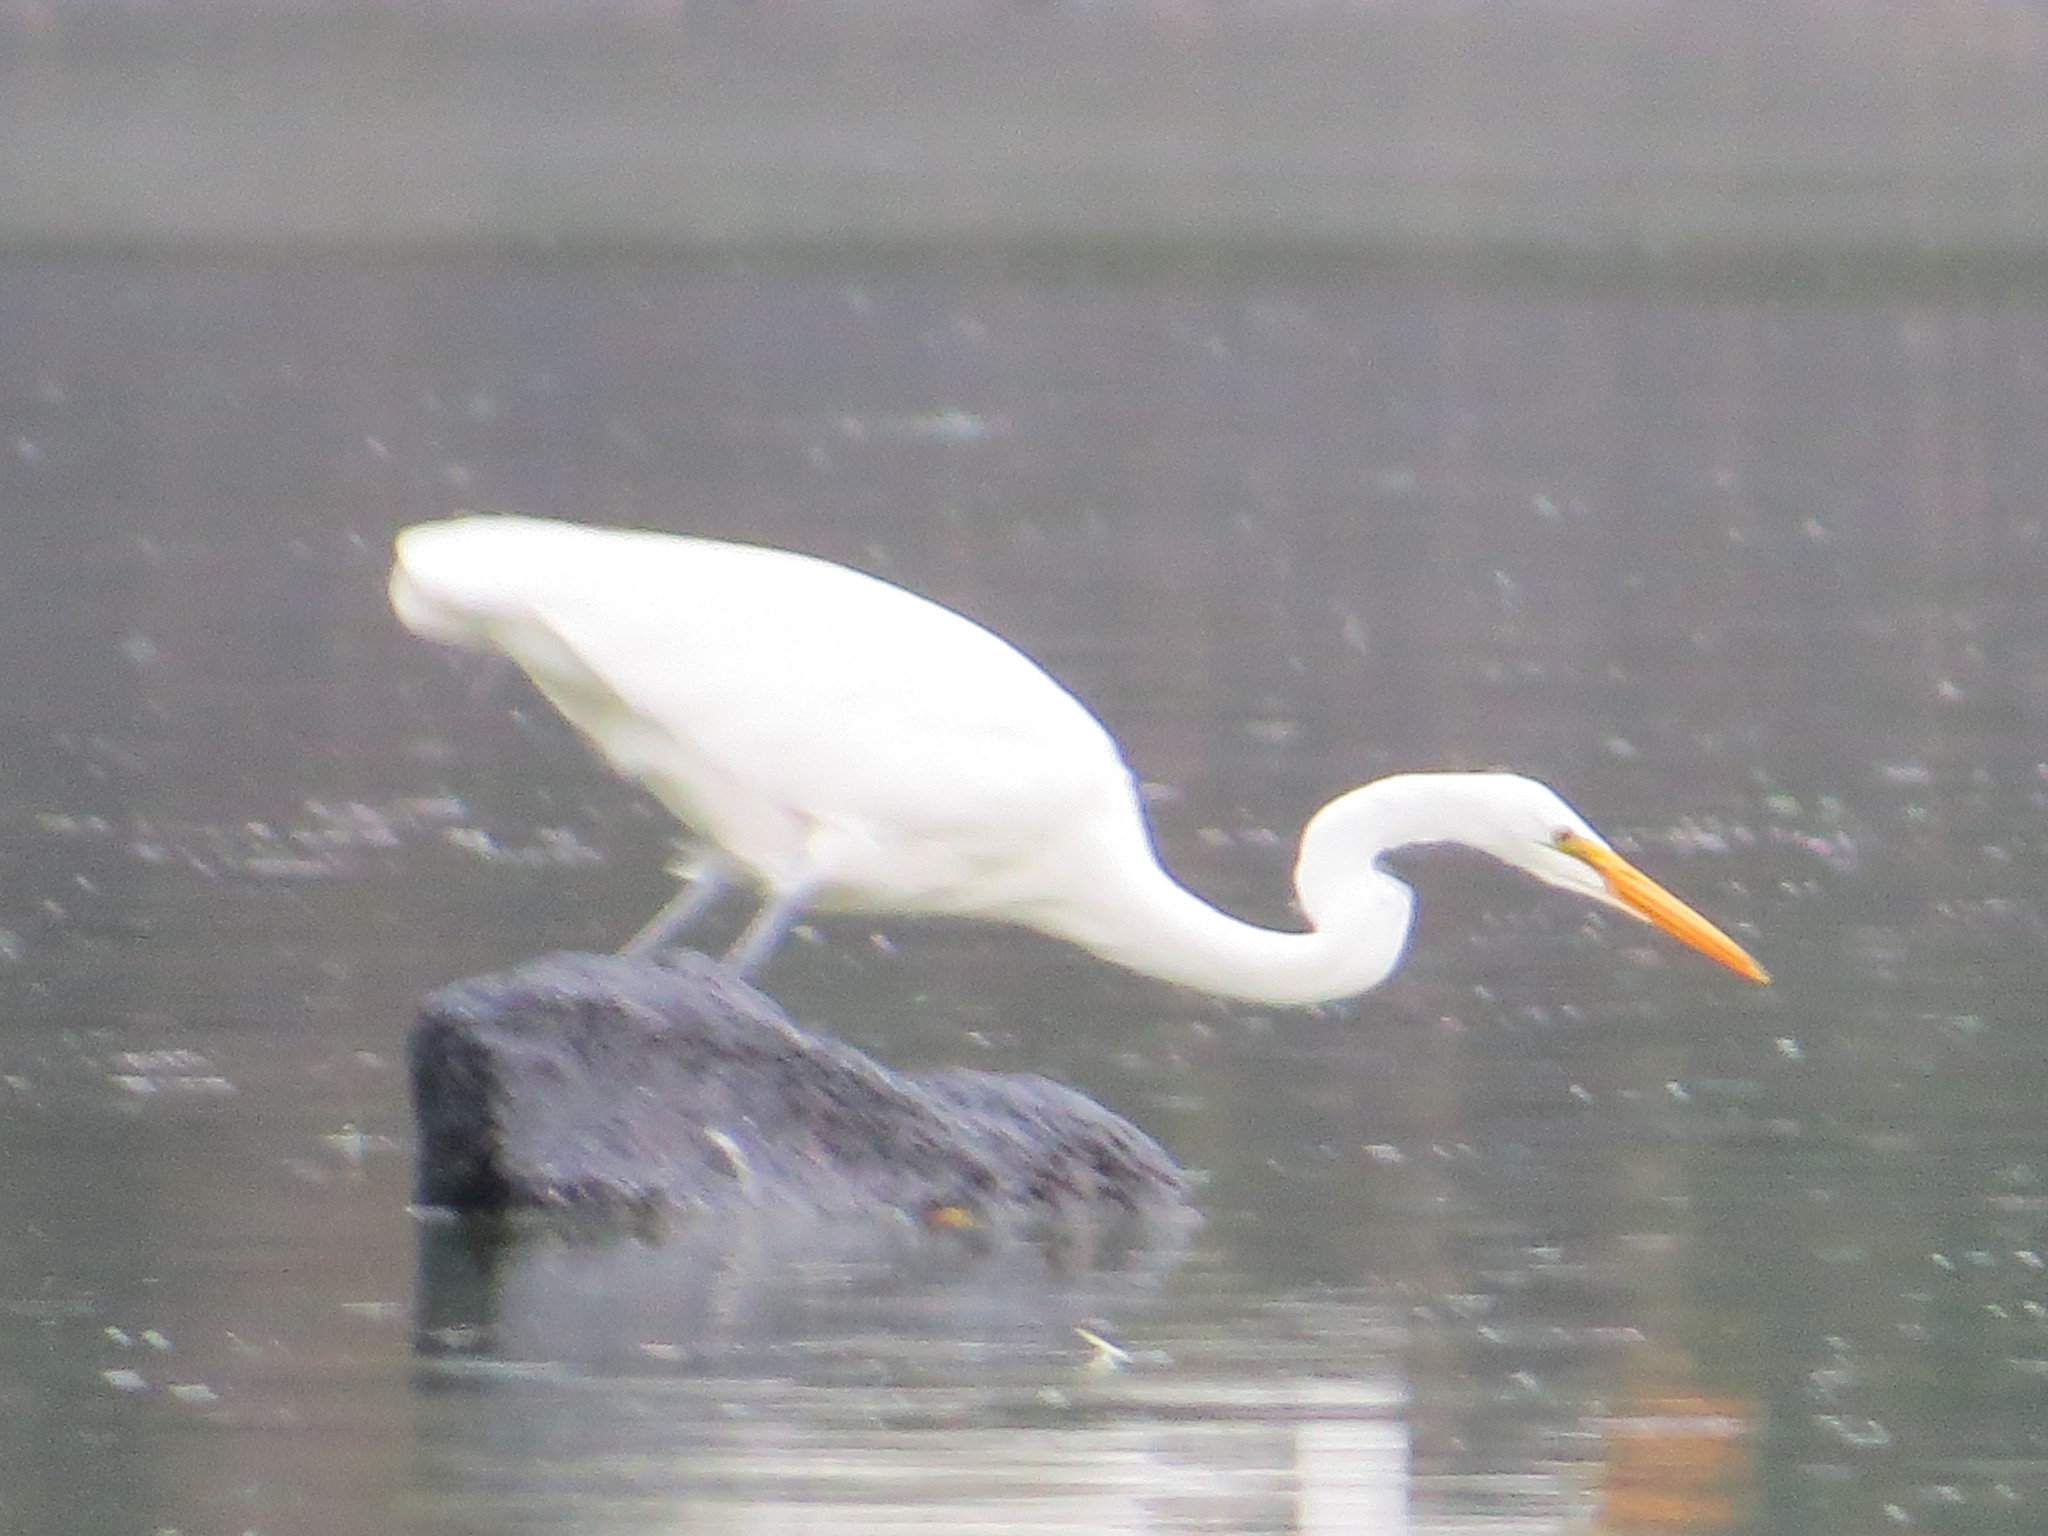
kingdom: Animalia
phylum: Chordata
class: Aves
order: Pelecaniformes
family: Ardeidae
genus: Ardea
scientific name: Ardea alba
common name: Great egret
